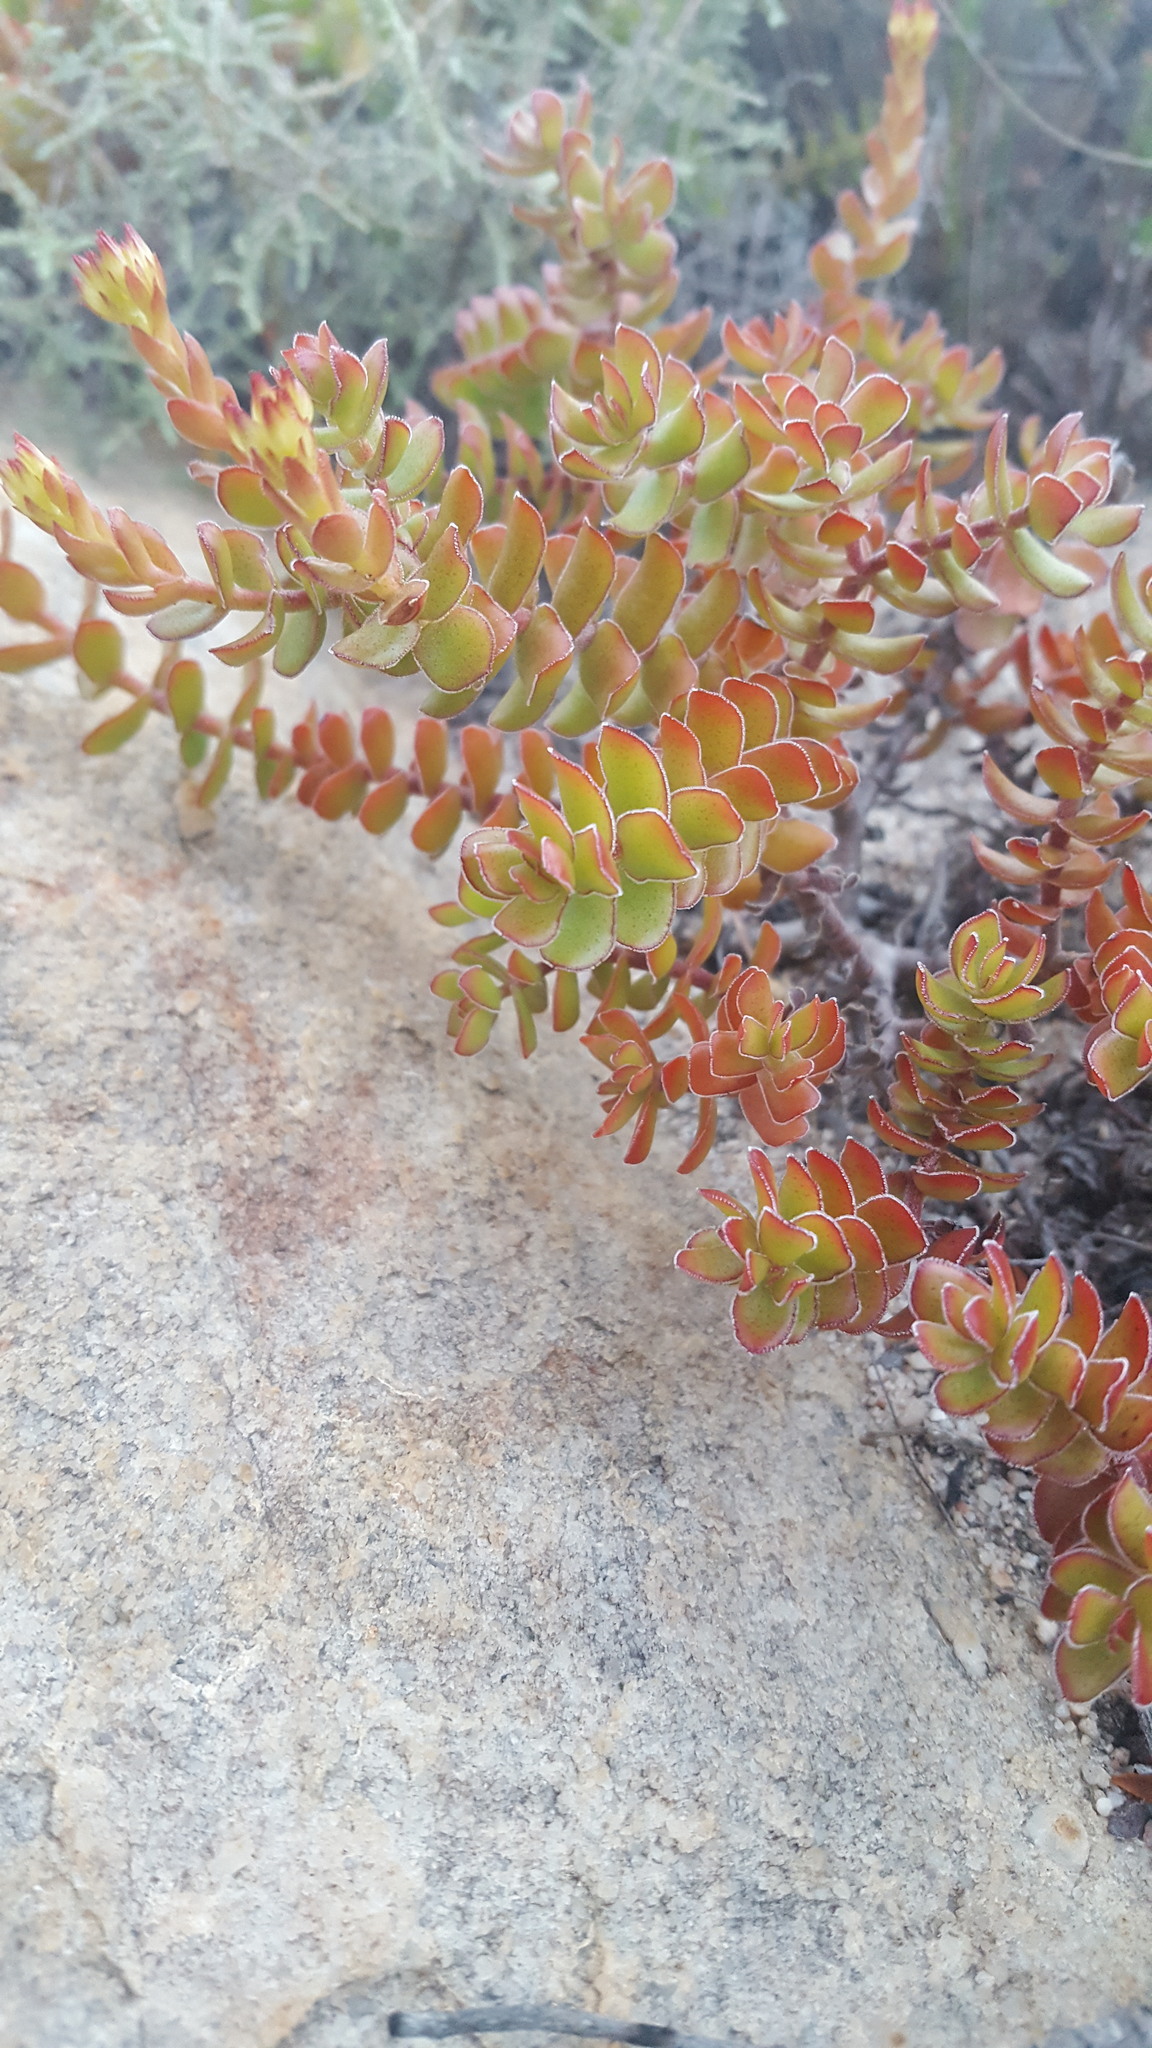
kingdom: Plantae
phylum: Tracheophyta
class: Magnoliopsida
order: Saxifragales
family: Crassulaceae
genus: Crassula
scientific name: Crassula undulata
